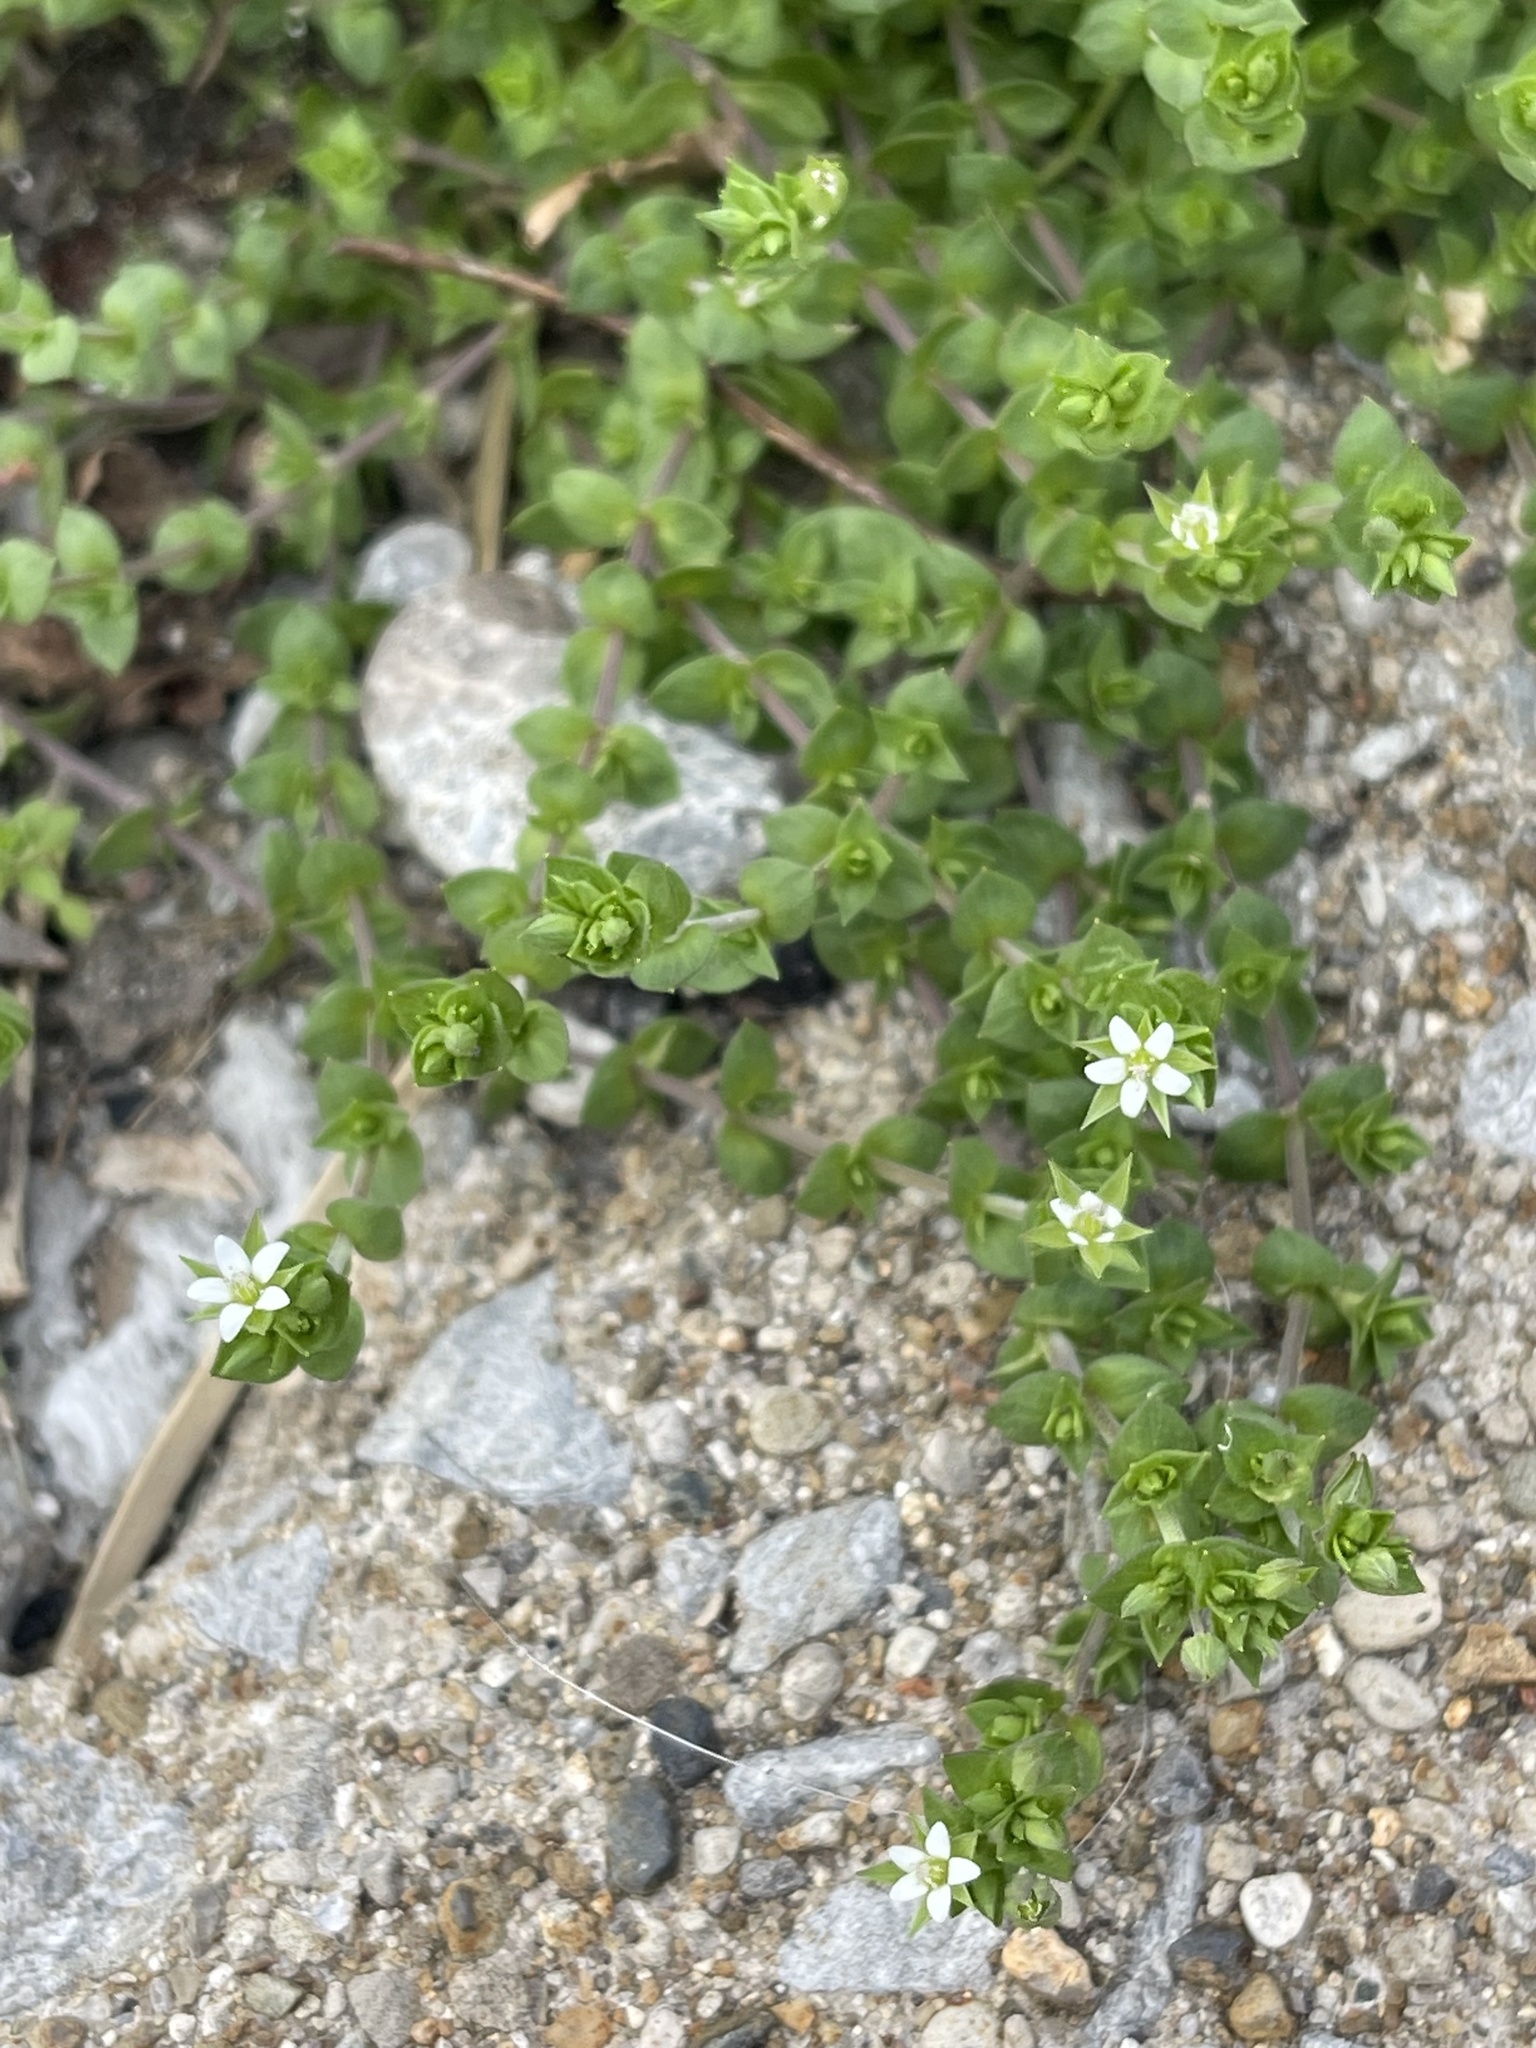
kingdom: Plantae
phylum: Tracheophyta
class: Magnoliopsida
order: Caryophyllales
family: Caryophyllaceae
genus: Arenaria
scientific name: Arenaria serpyllifolia
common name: Thyme-leaved sandwort
